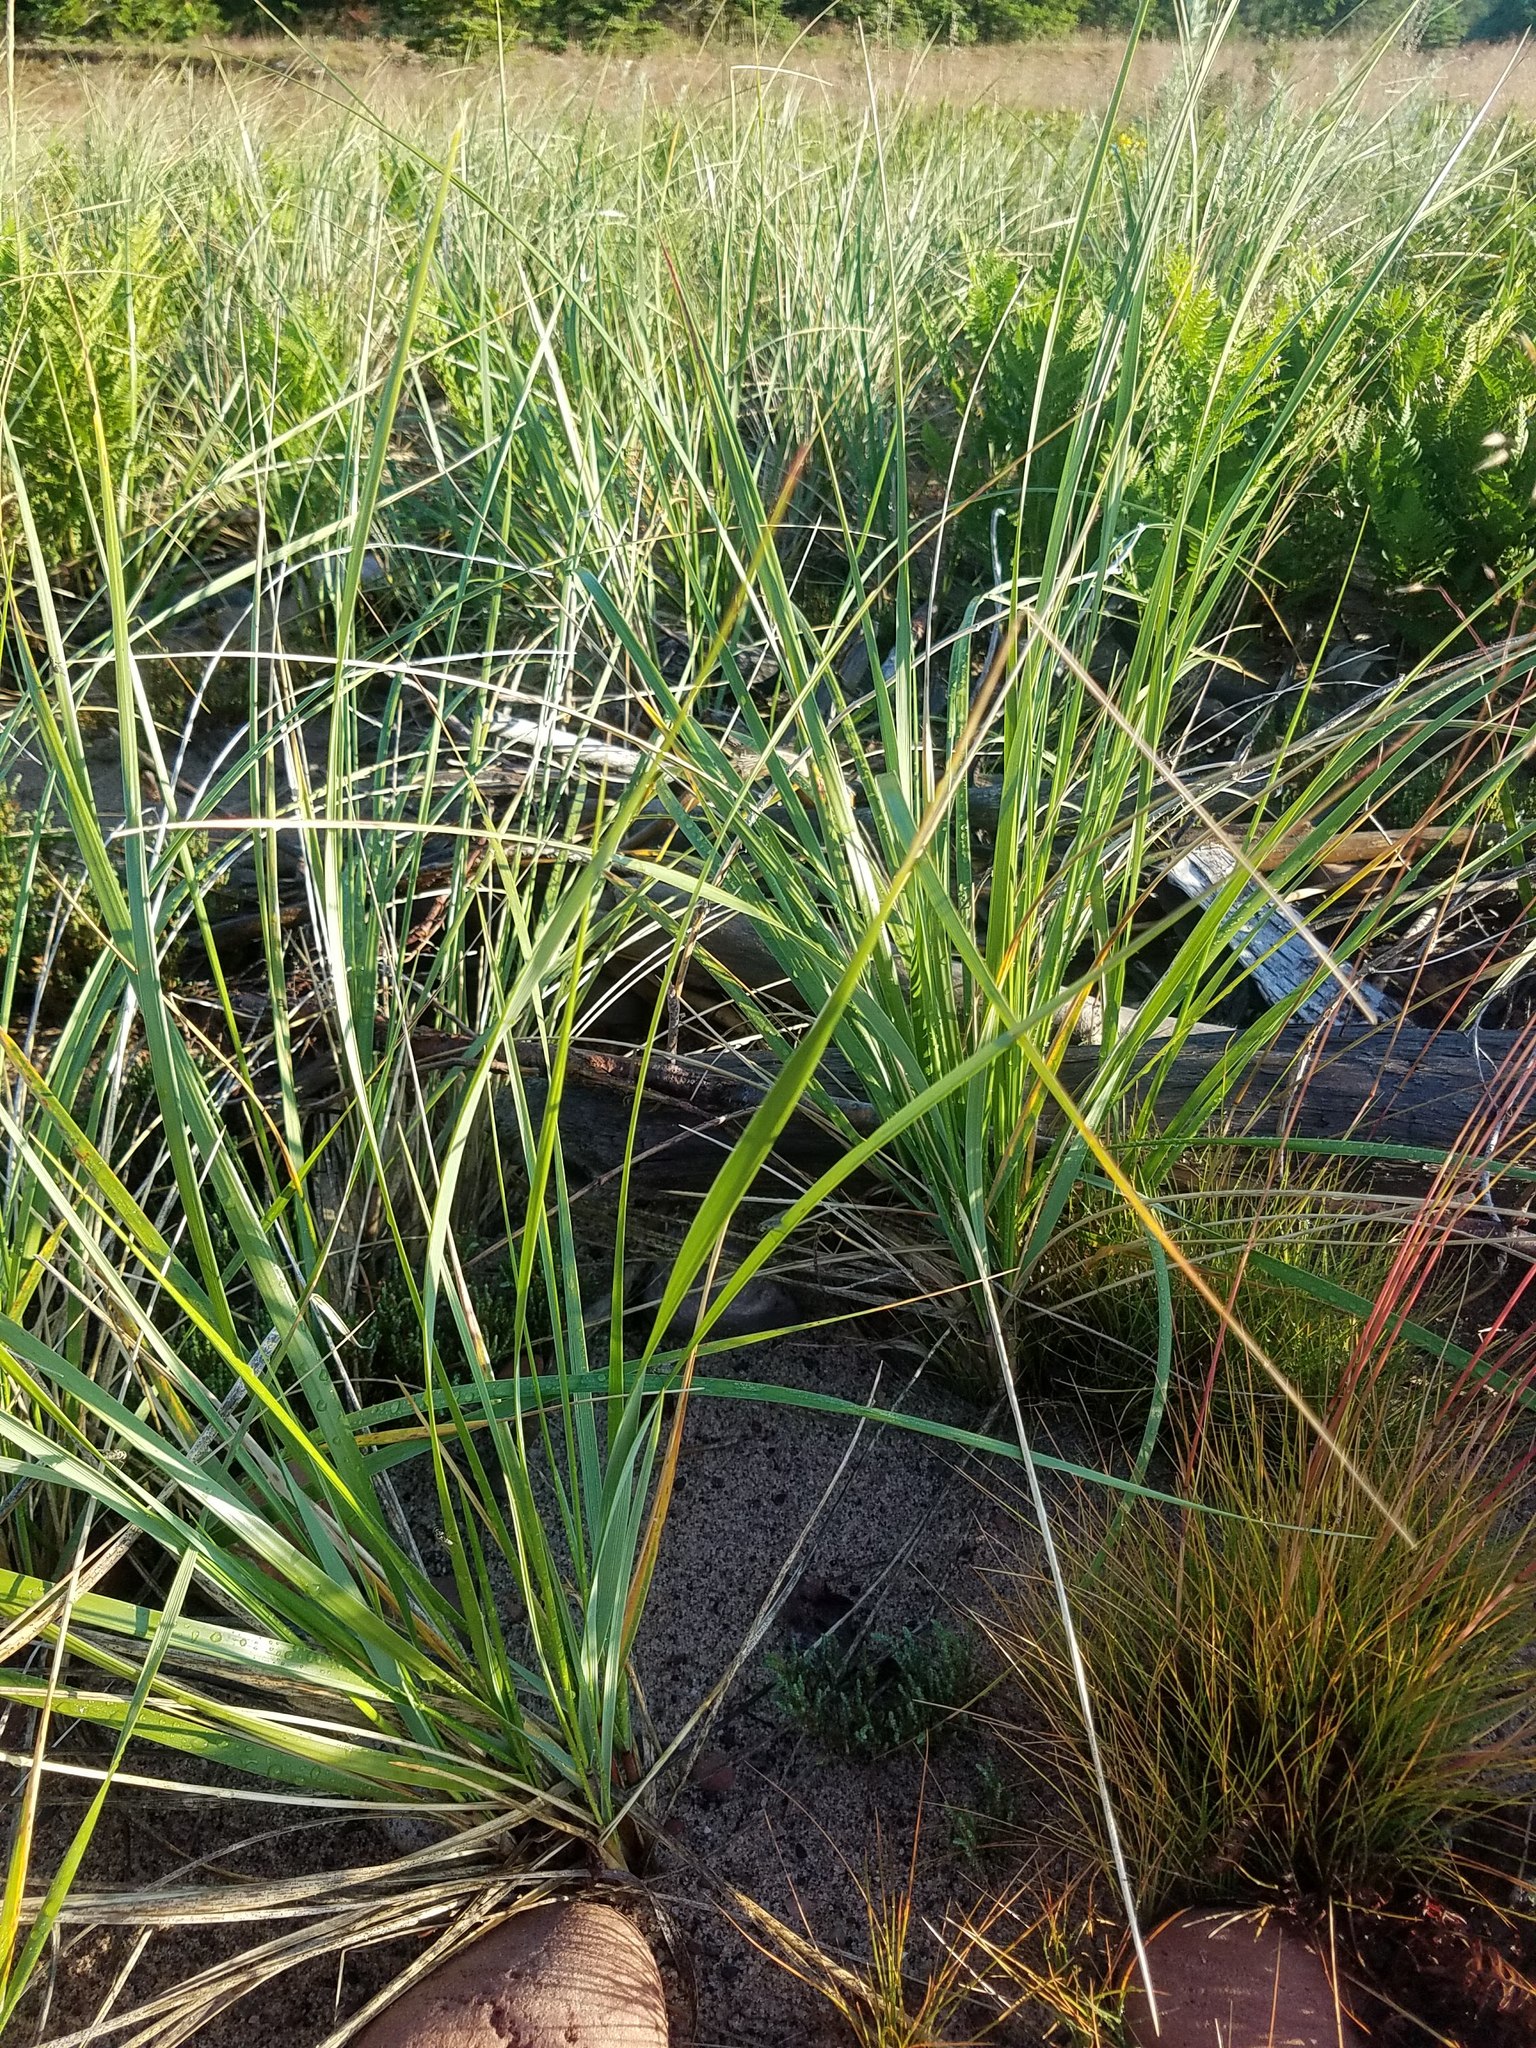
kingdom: Plantae
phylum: Tracheophyta
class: Liliopsida
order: Poales
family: Poaceae
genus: Calamagrostis
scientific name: Calamagrostis breviligulata
